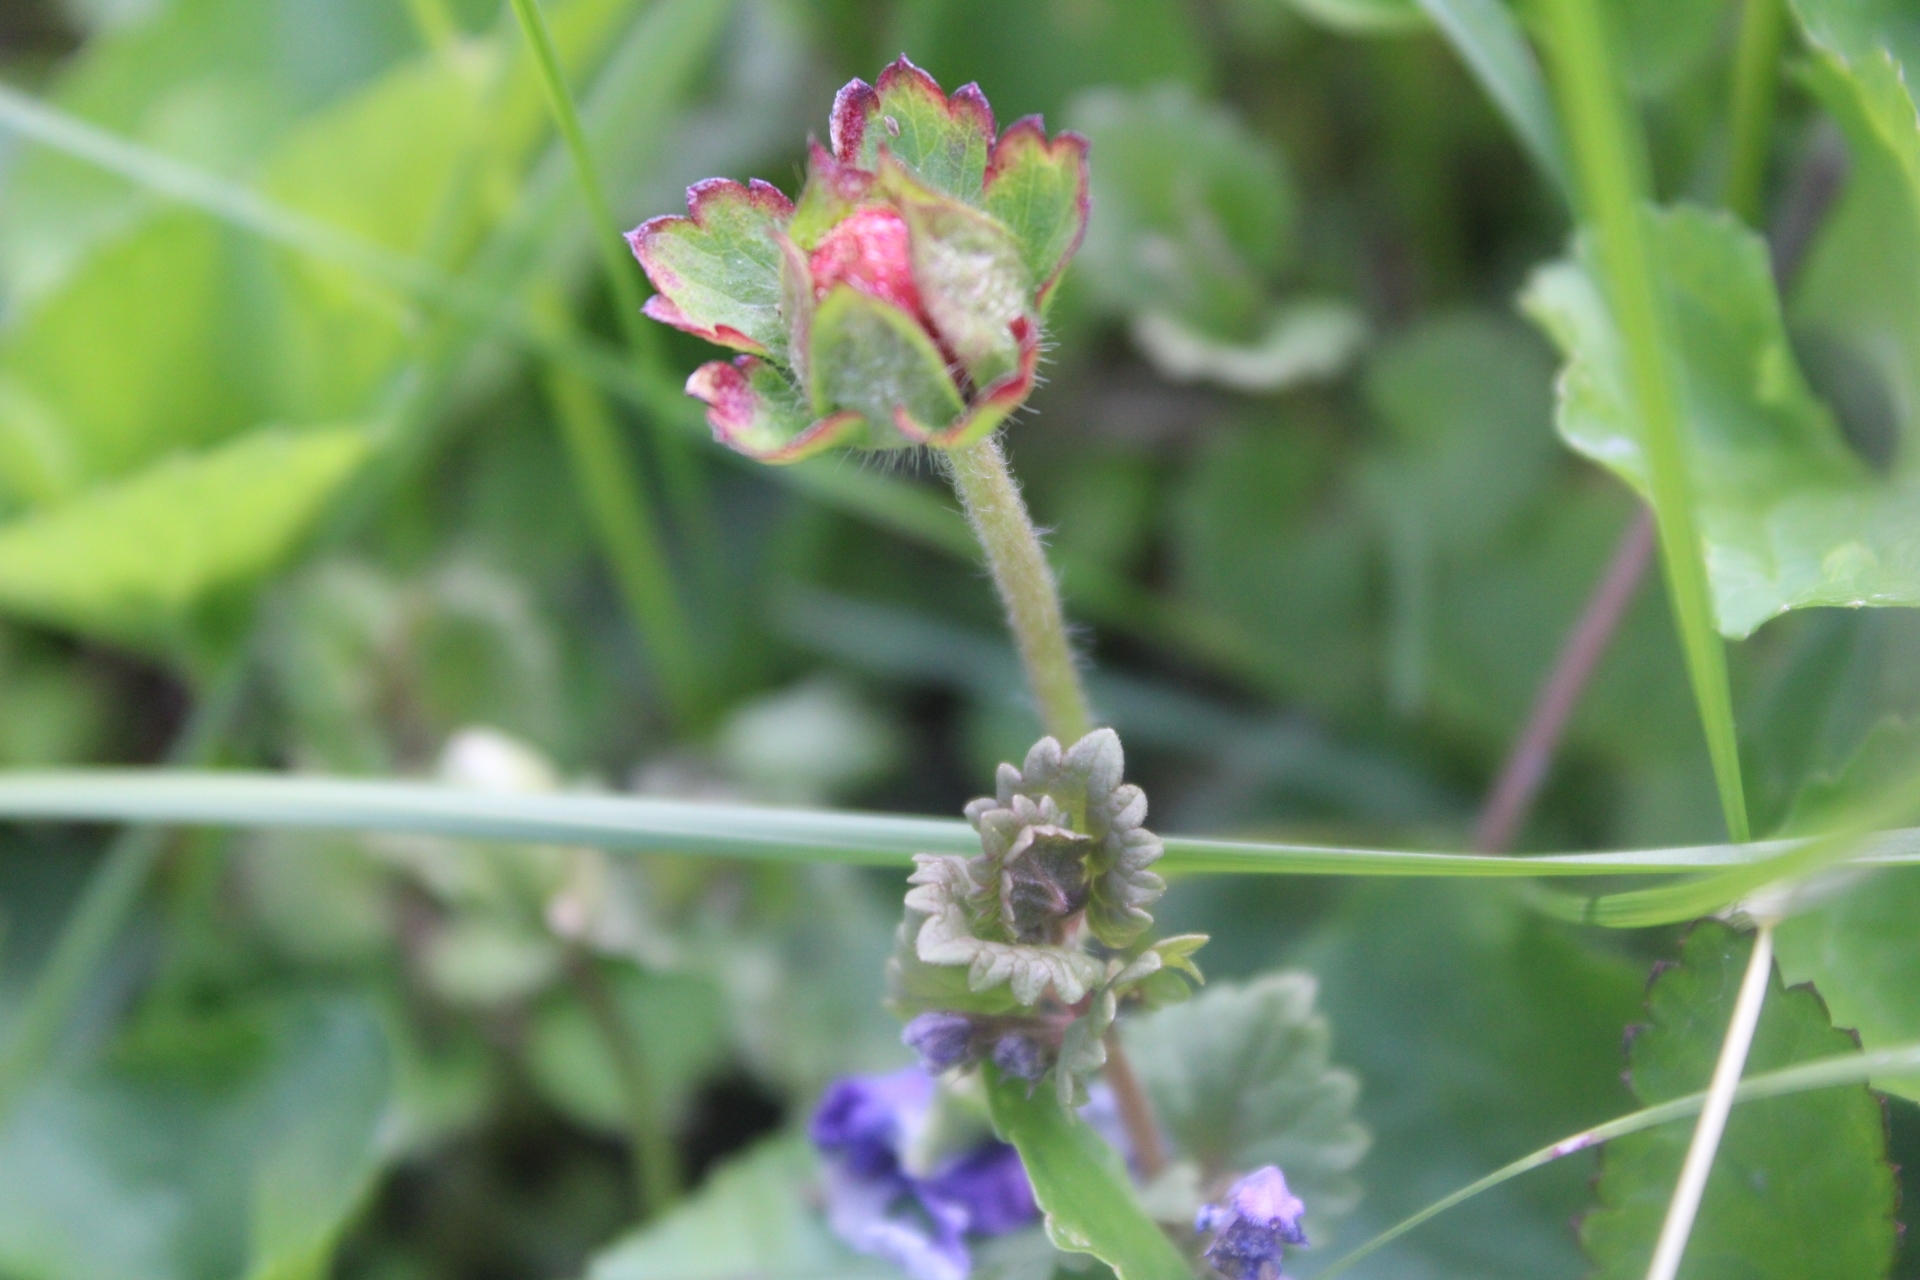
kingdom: Plantae
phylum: Tracheophyta
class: Magnoliopsida
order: Rosales
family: Rosaceae
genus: Potentilla
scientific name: Potentilla indica
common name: Yellow-flowered strawberry
